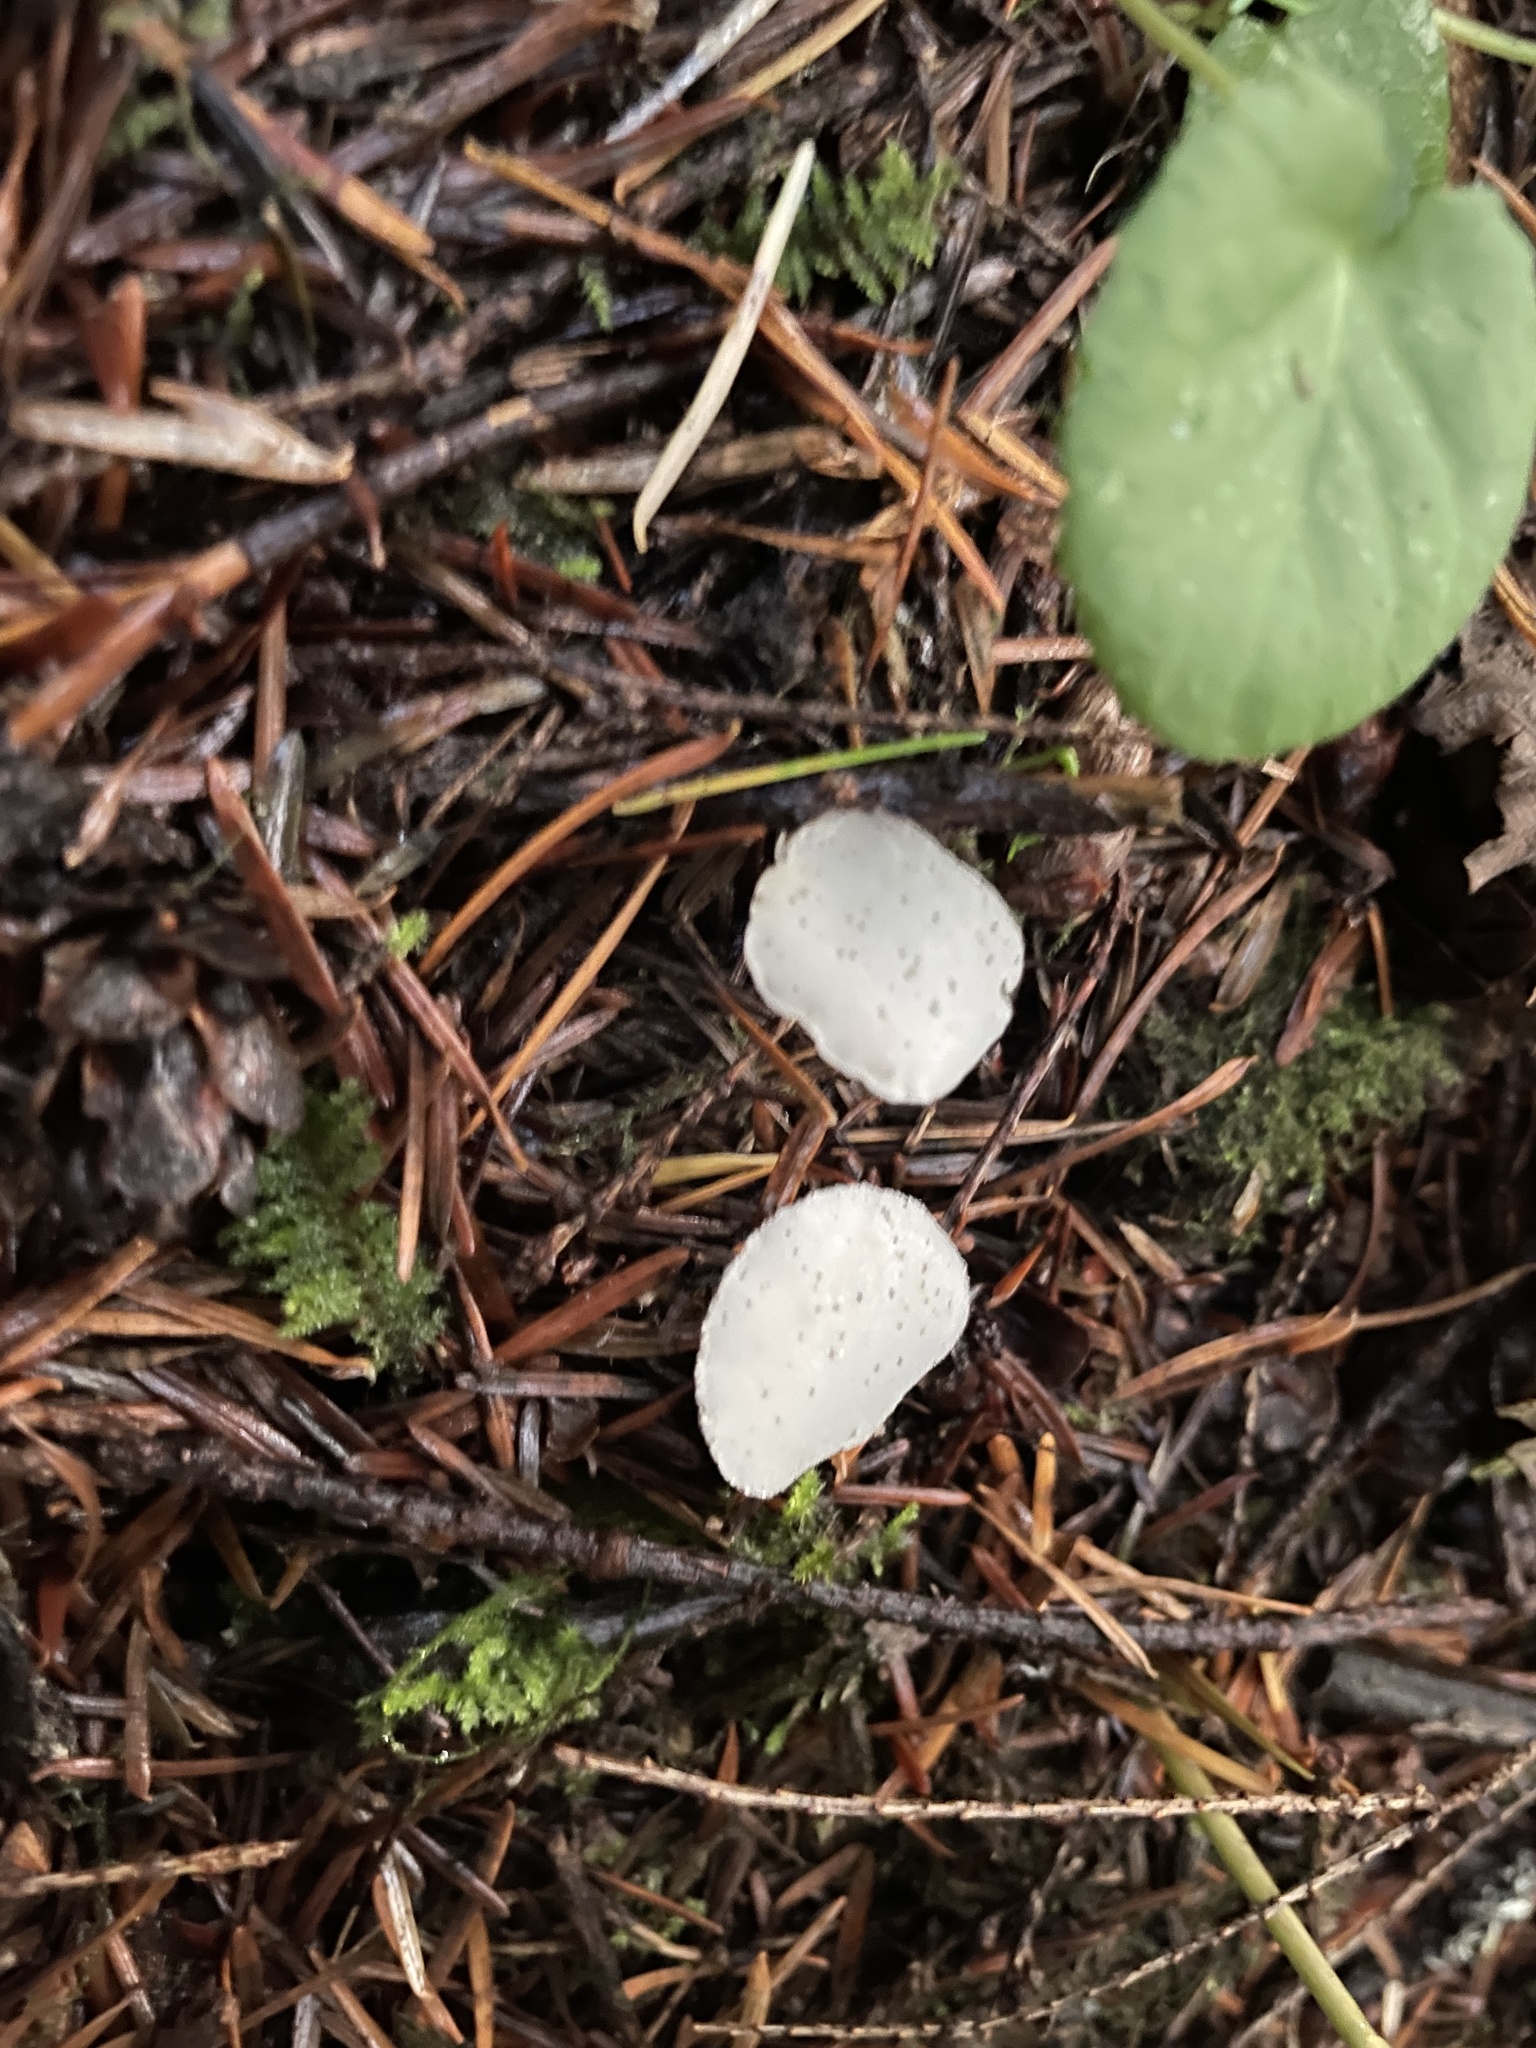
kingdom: Fungi
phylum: Basidiomycota
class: Agaricomycetes
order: Auriculariales
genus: Pseudohydnum
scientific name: Pseudohydnum gelatinosum
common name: Jelly tongue
